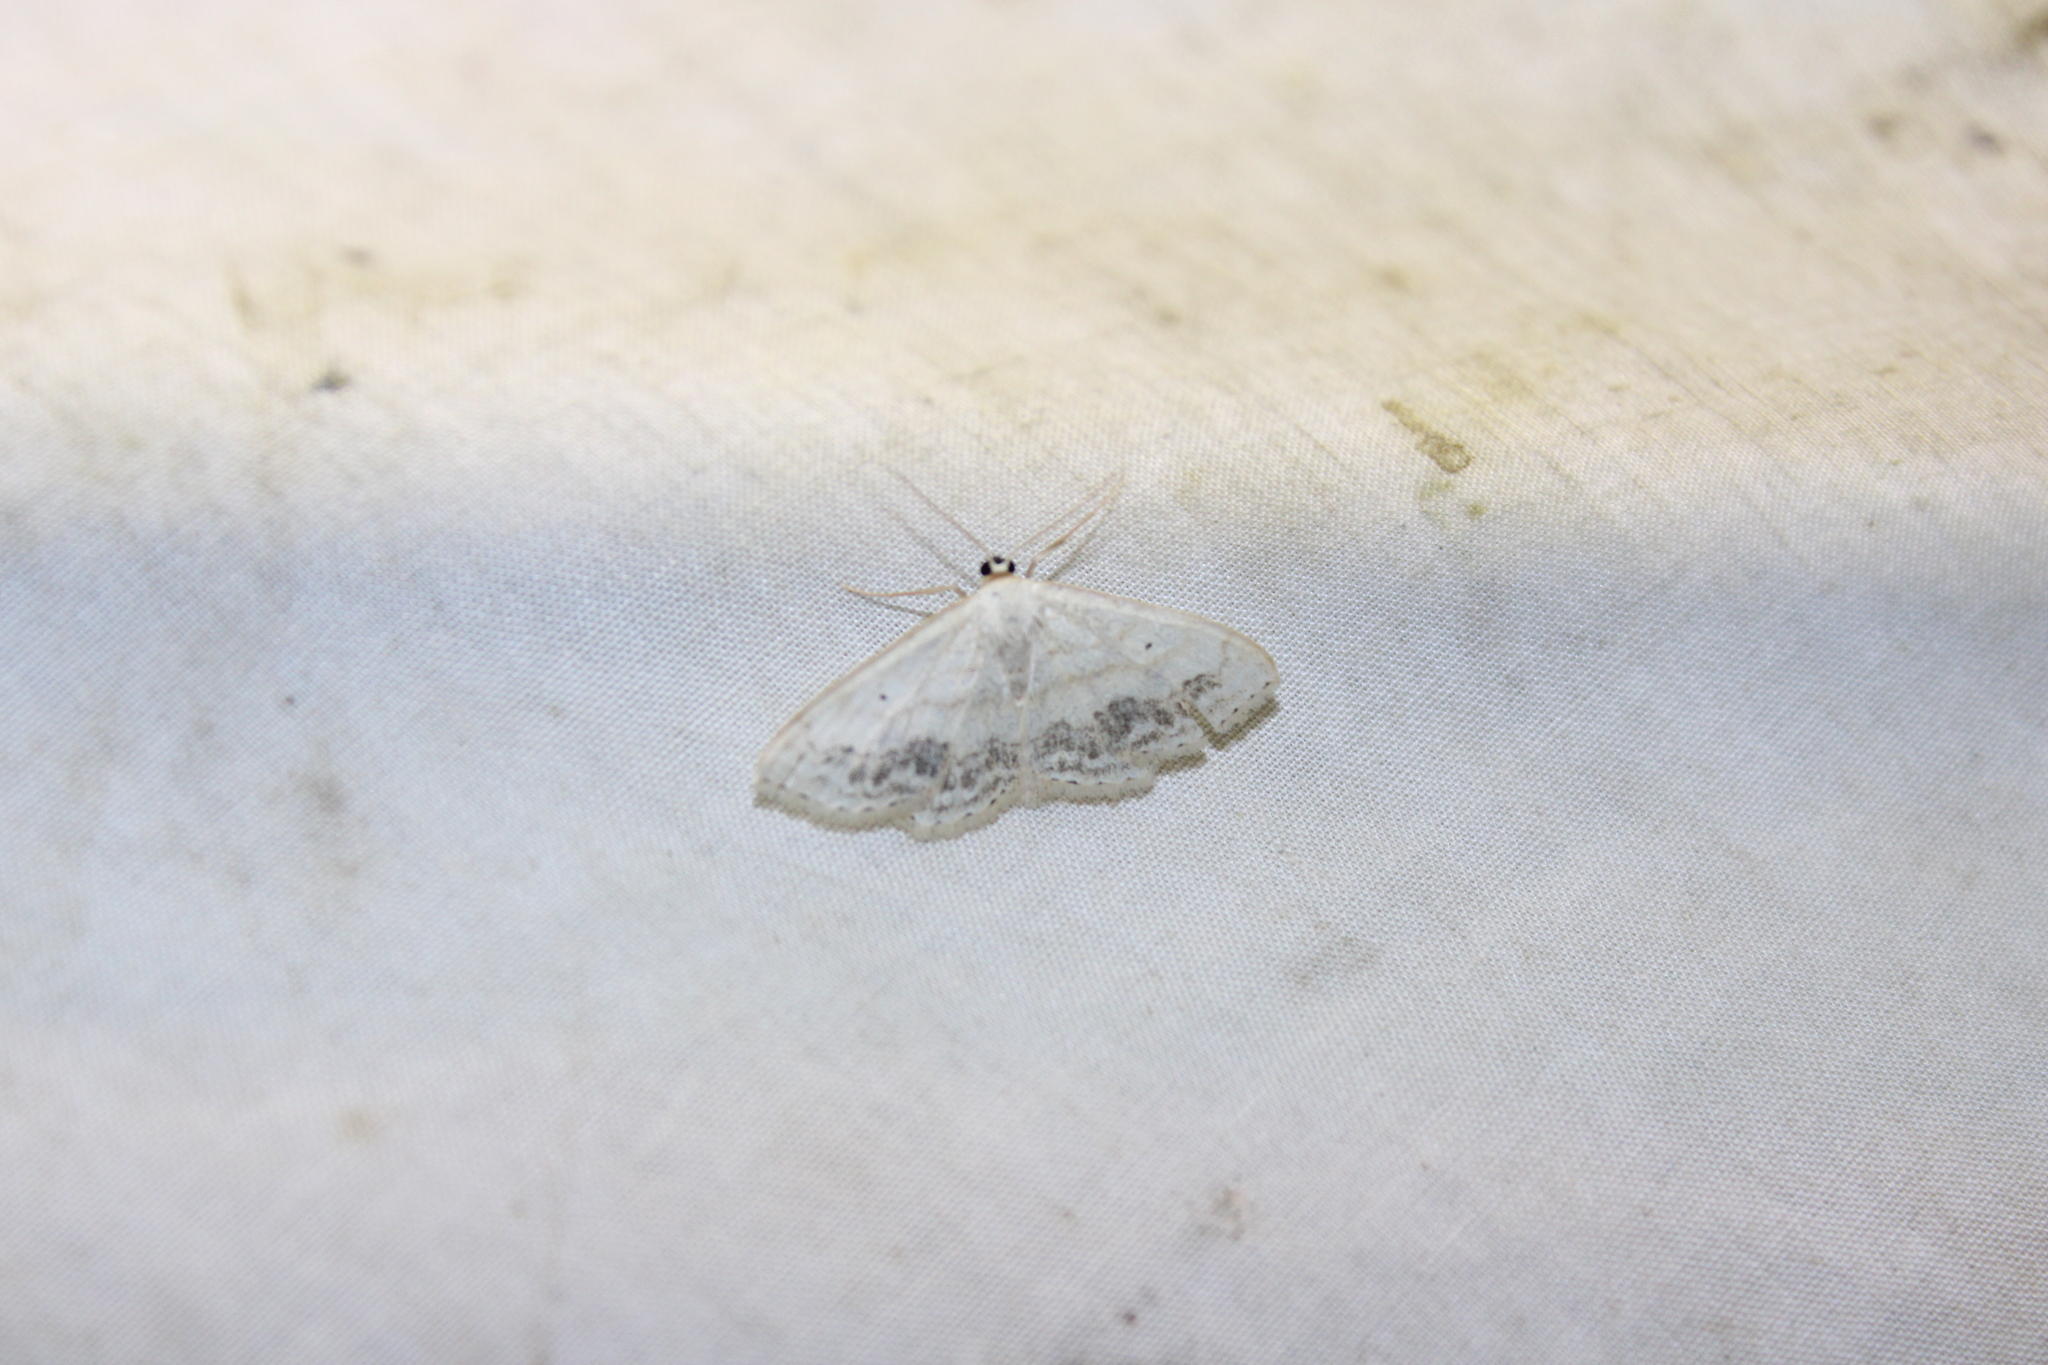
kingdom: Animalia
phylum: Arthropoda
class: Insecta
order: Lepidoptera
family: Geometridae
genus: Scopula
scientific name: Scopula limboundata
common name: Large lace border
